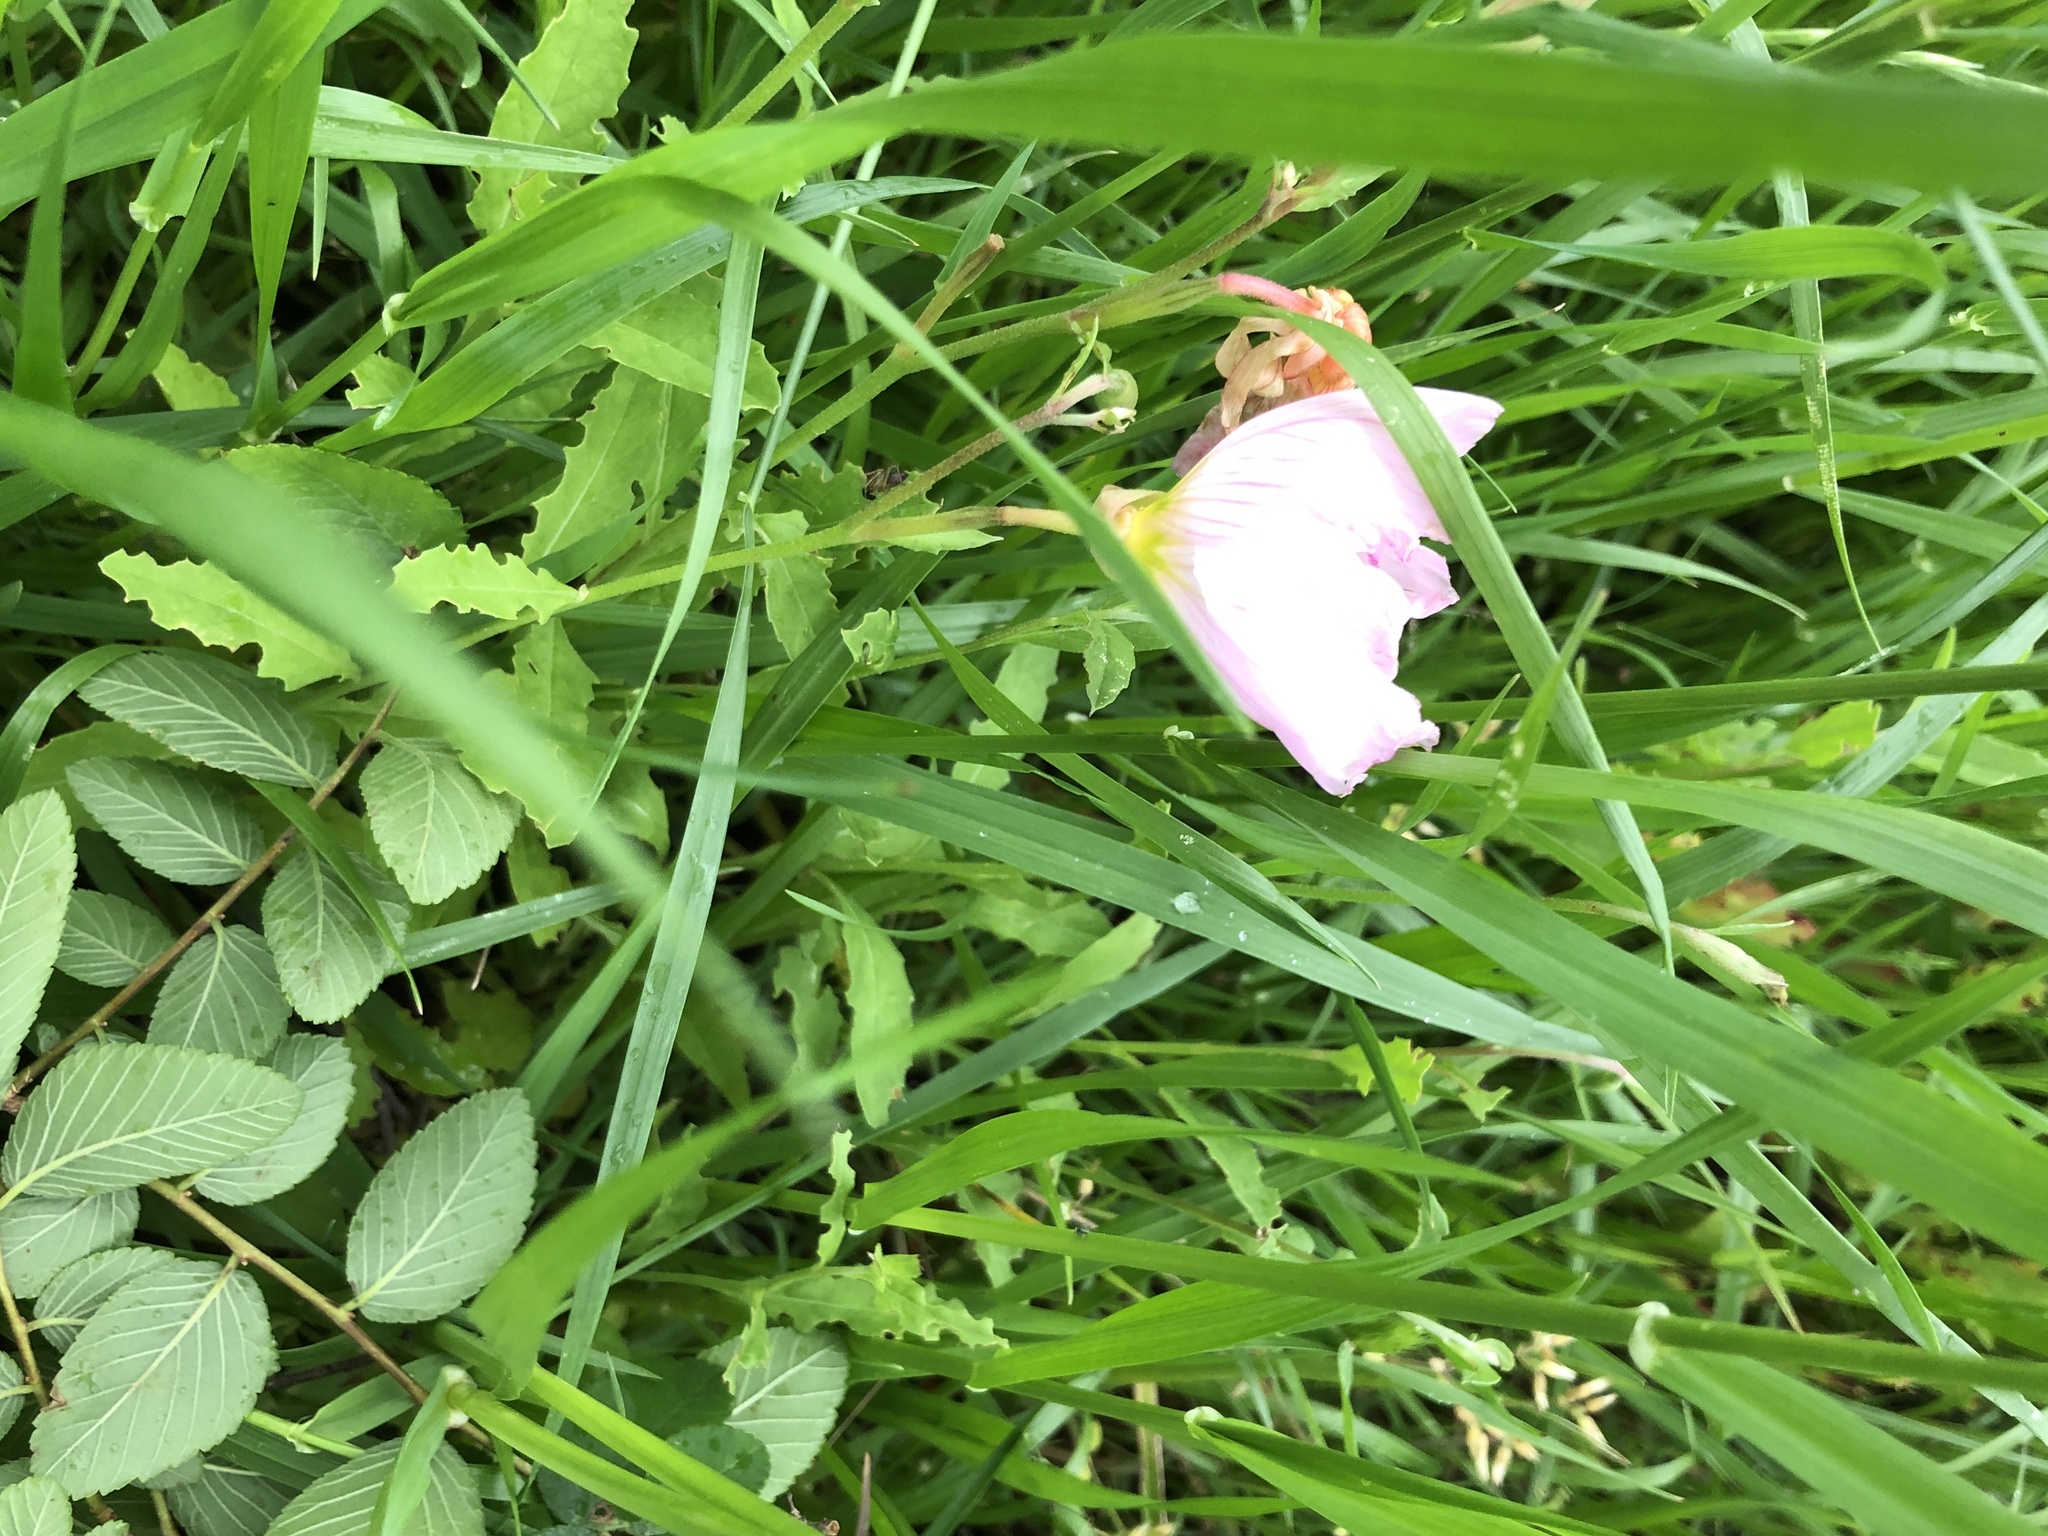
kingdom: Plantae
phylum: Tracheophyta
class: Magnoliopsida
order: Myrtales
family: Onagraceae
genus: Oenothera
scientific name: Oenothera speciosa
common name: White evening-primrose
